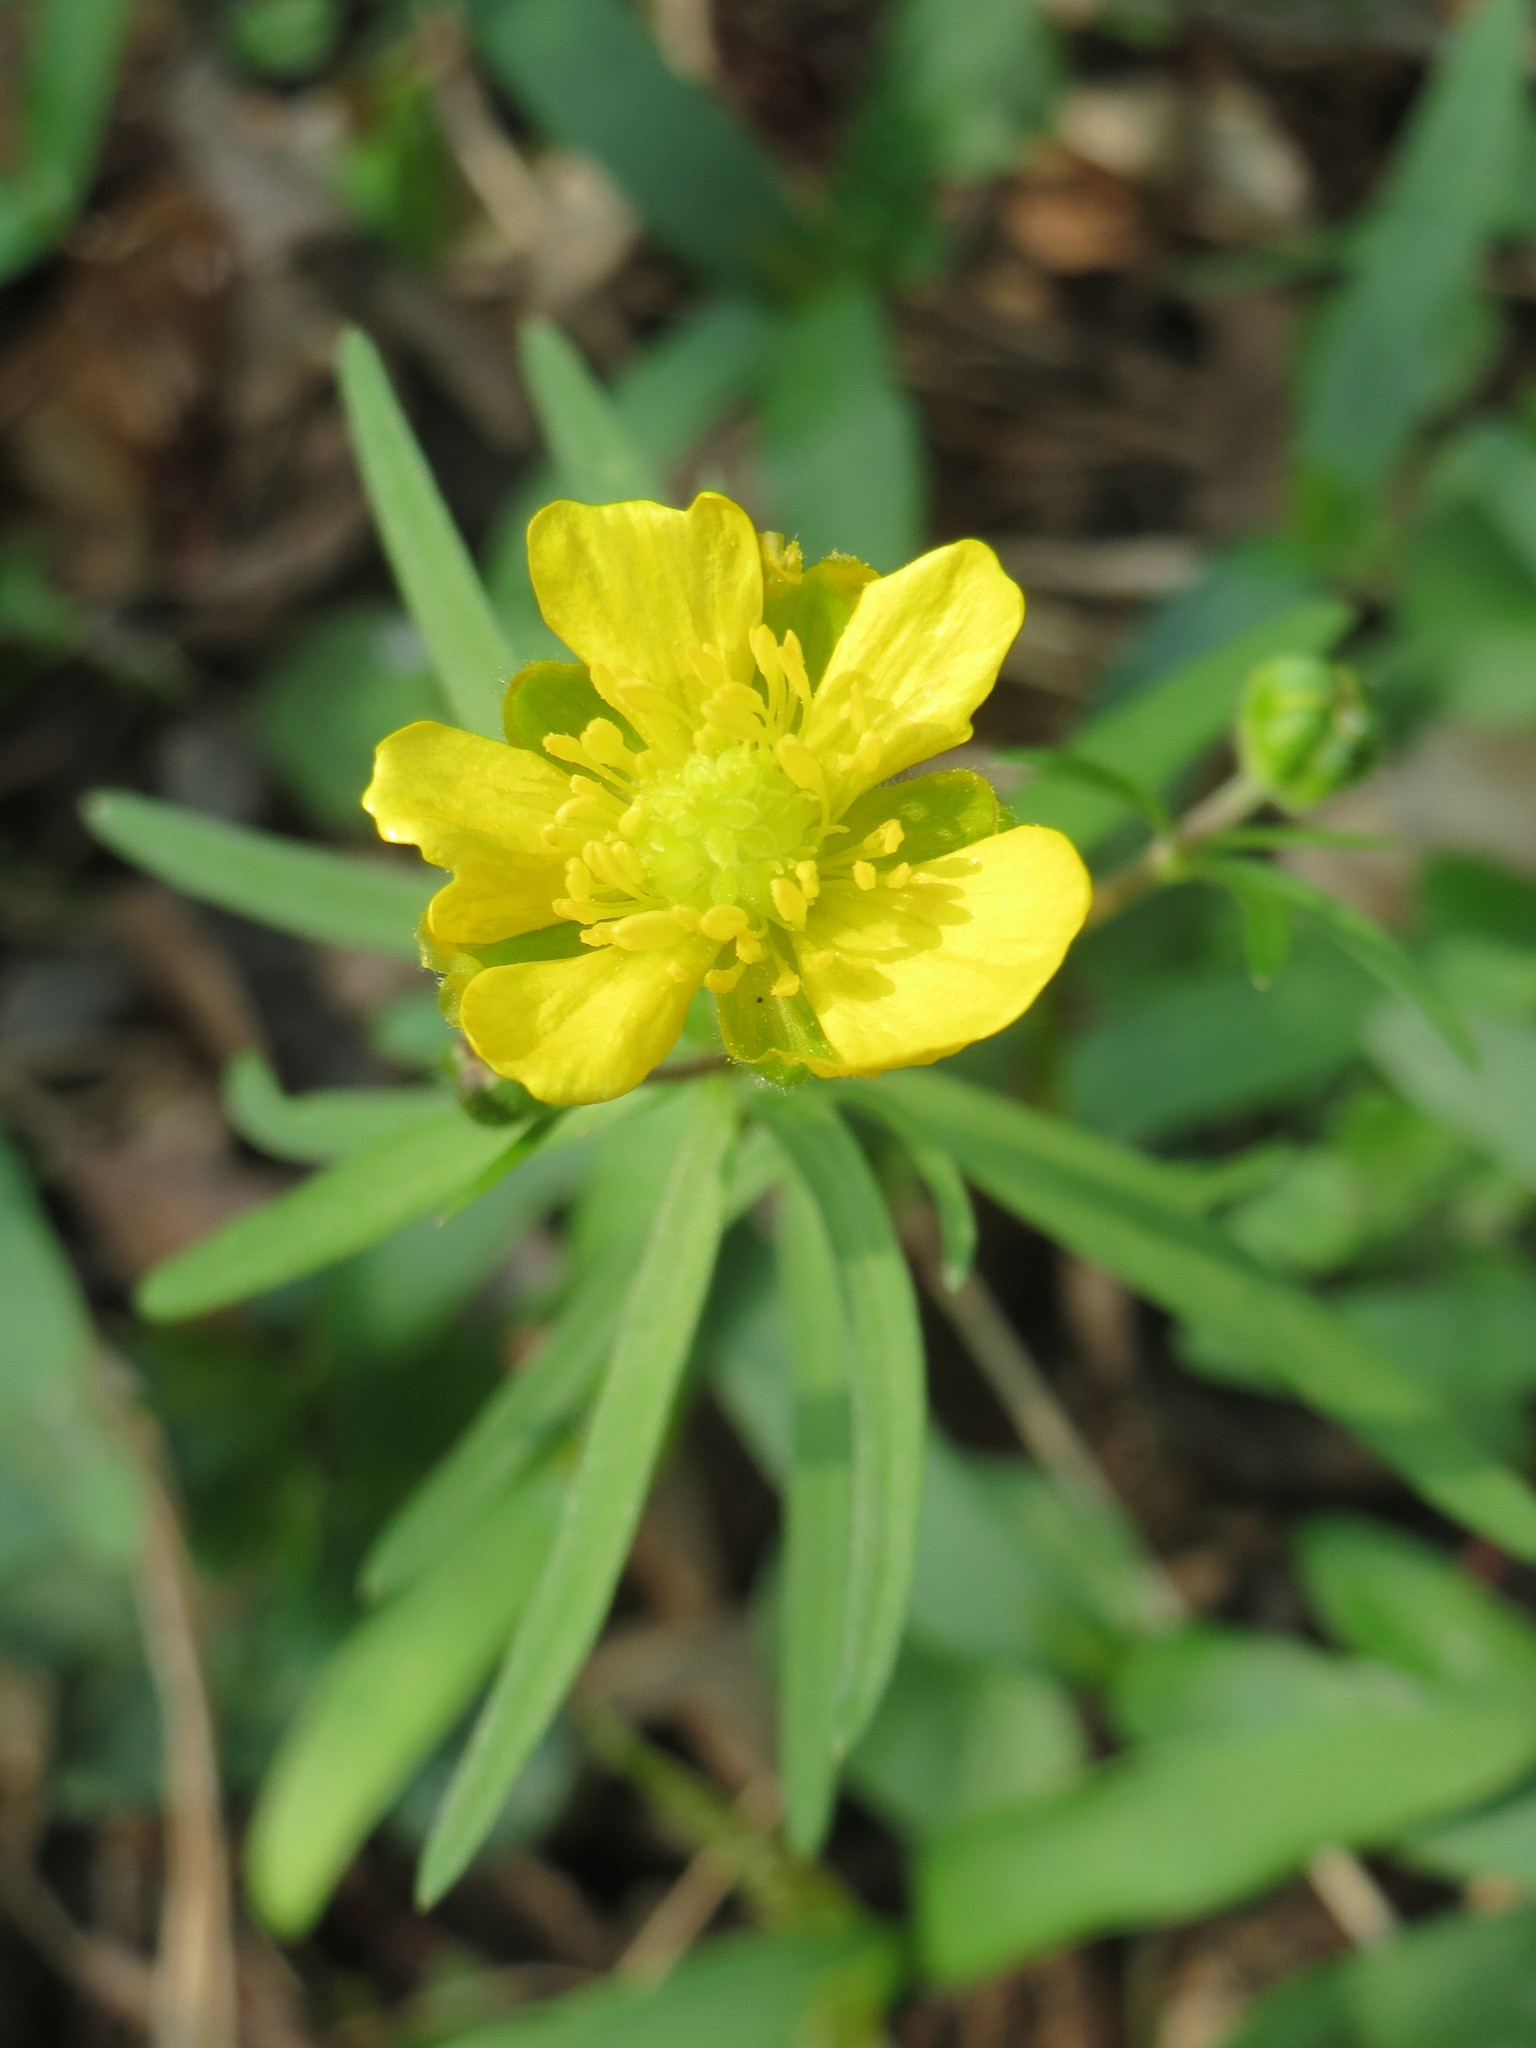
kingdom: Plantae
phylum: Tracheophyta
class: Magnoliopsida
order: Ranunculales
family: Ranunculaceae
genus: Ranunculus
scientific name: Ranunculus auricomus
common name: Goldilocks buttercup
